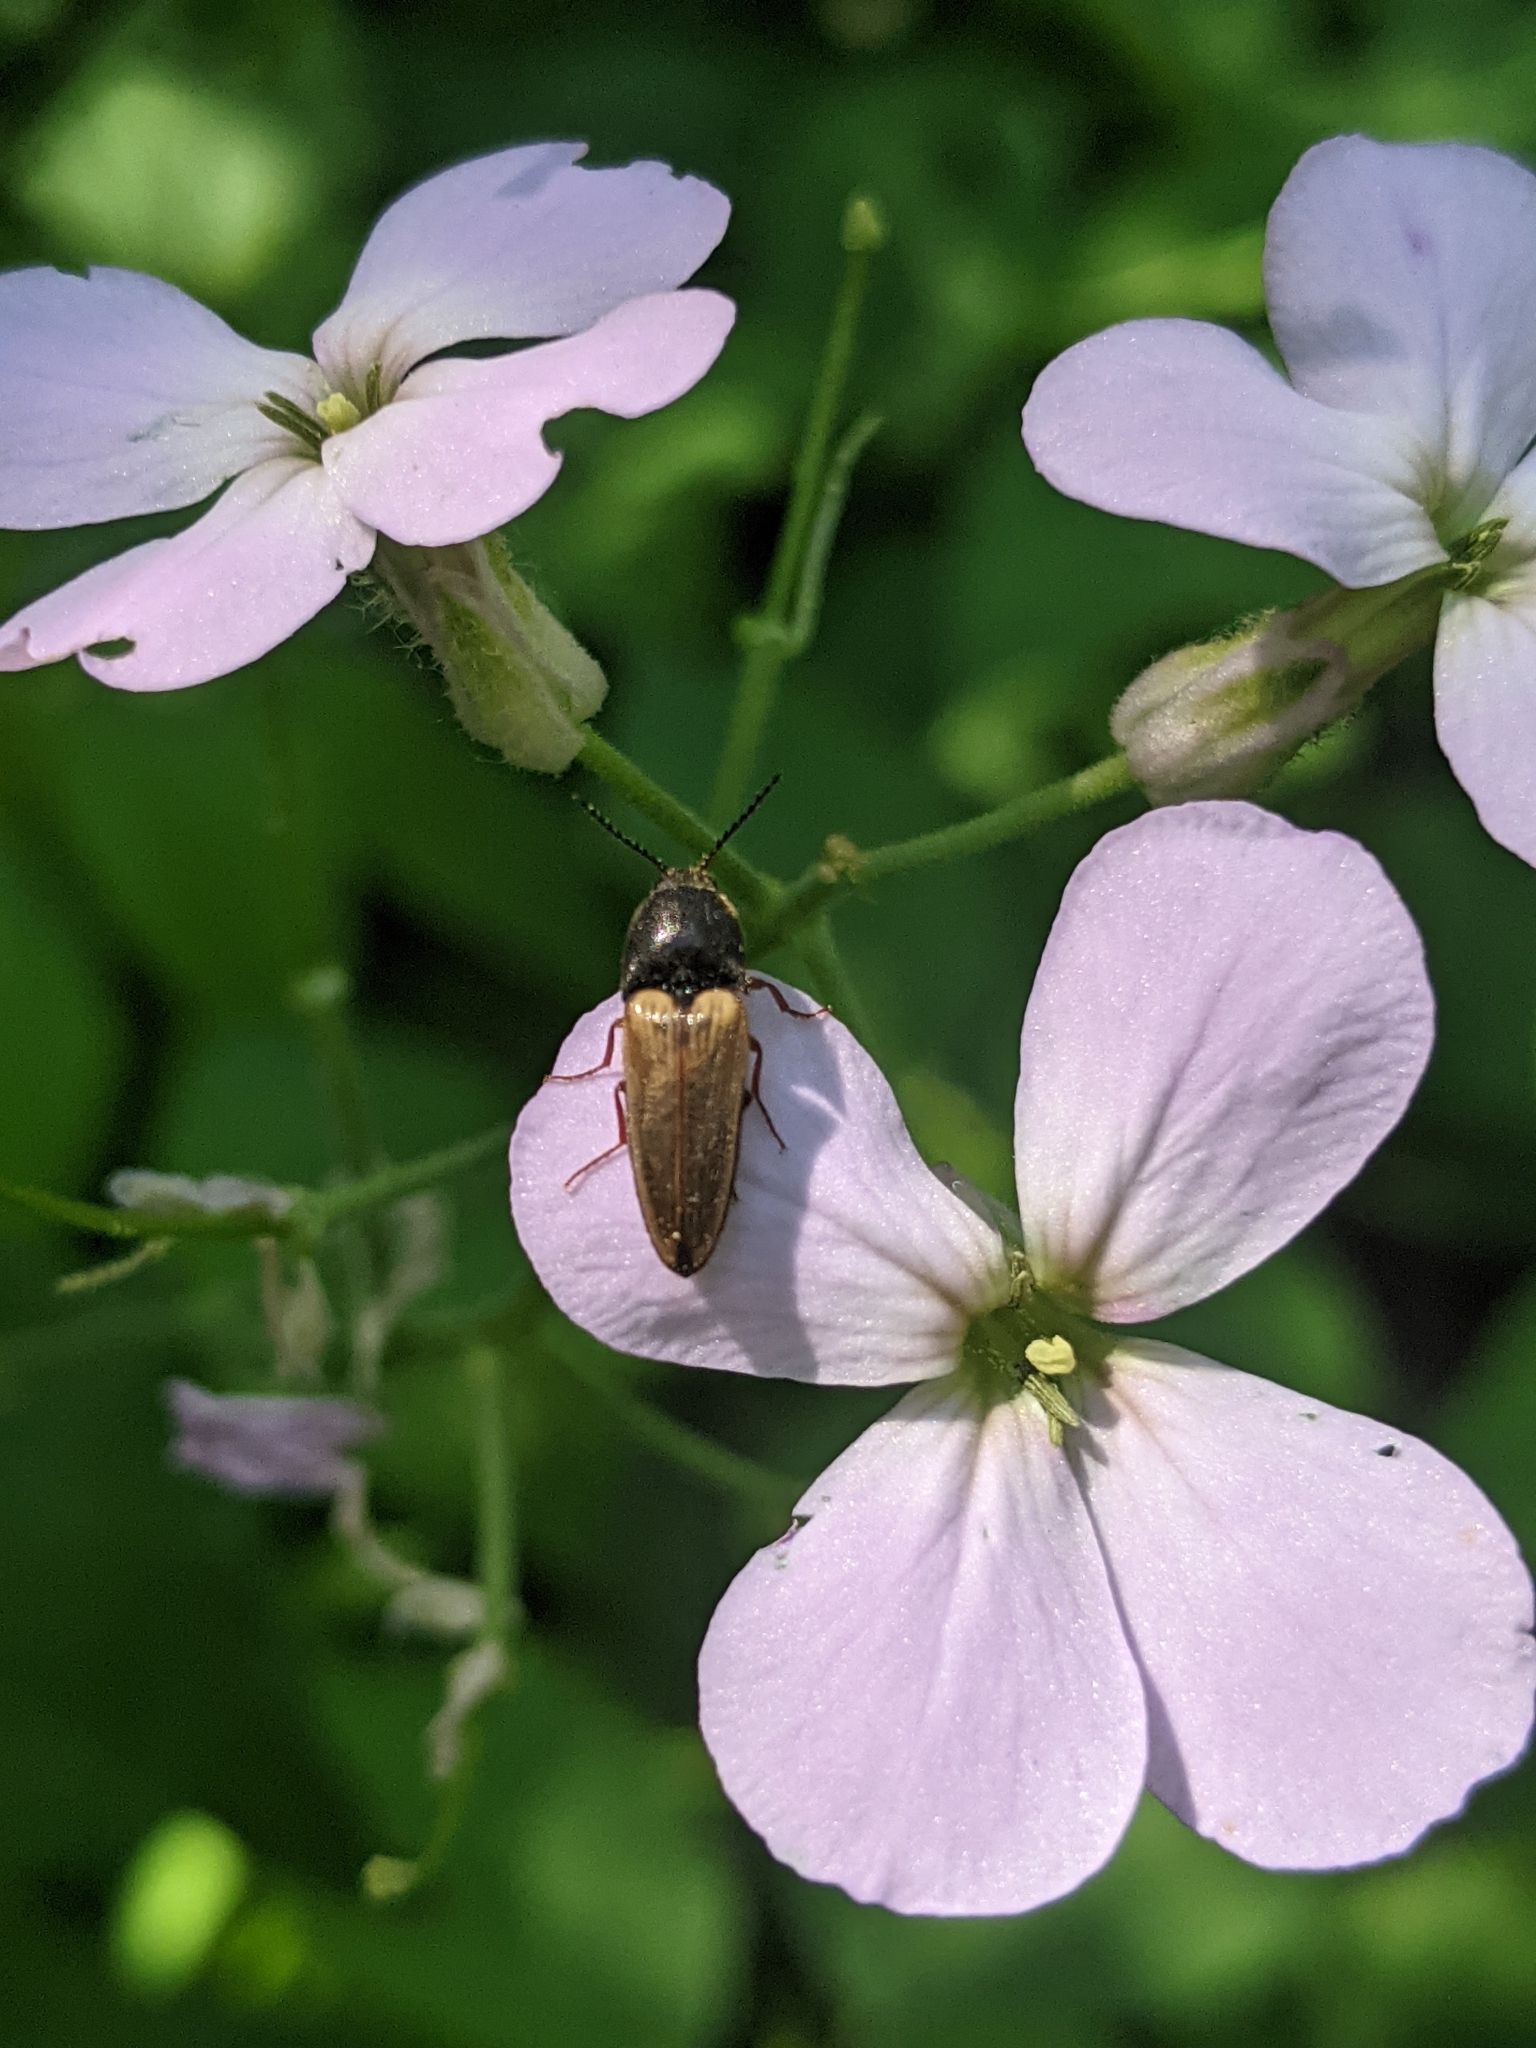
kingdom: Animalia
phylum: Arthropoda
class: Insecta
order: Coleoptera
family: Elateridae
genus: Ampedus
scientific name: Ampedus nigricollis
